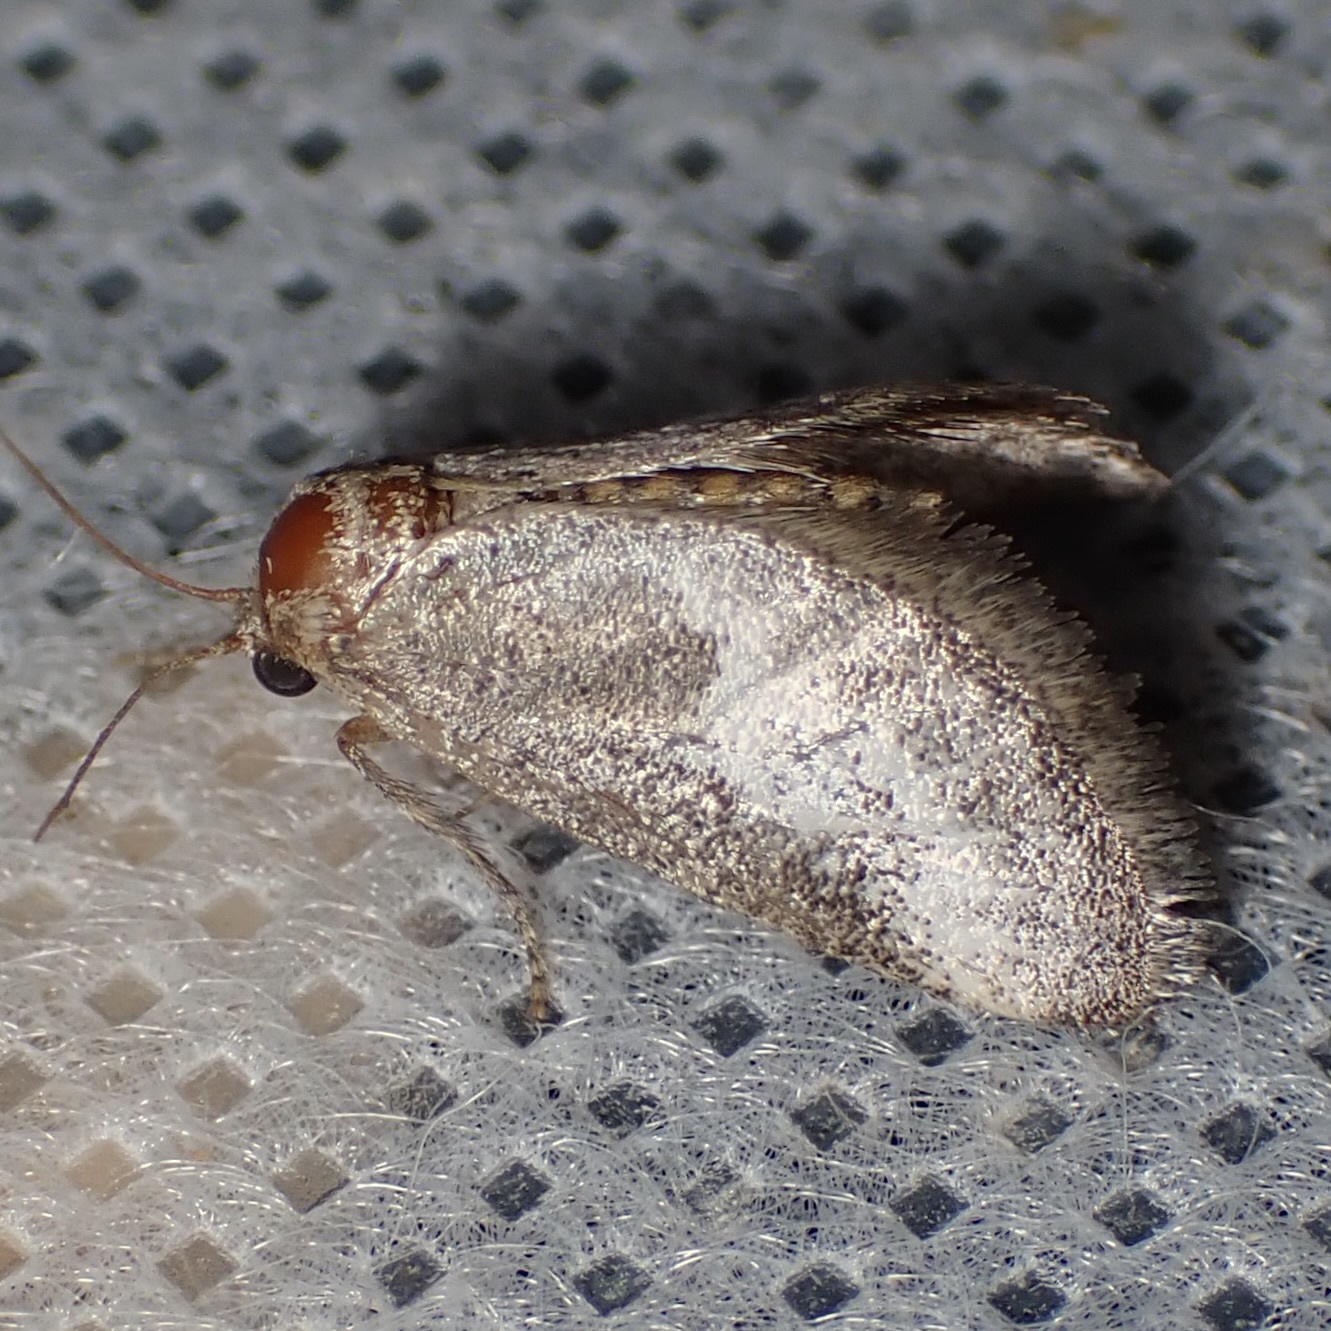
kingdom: Animalia
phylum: Arthropoda
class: Insecta
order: Lepidoptera
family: Limacodidae
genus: Cryptophobetron
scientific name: Cryptophobetron oropeso
